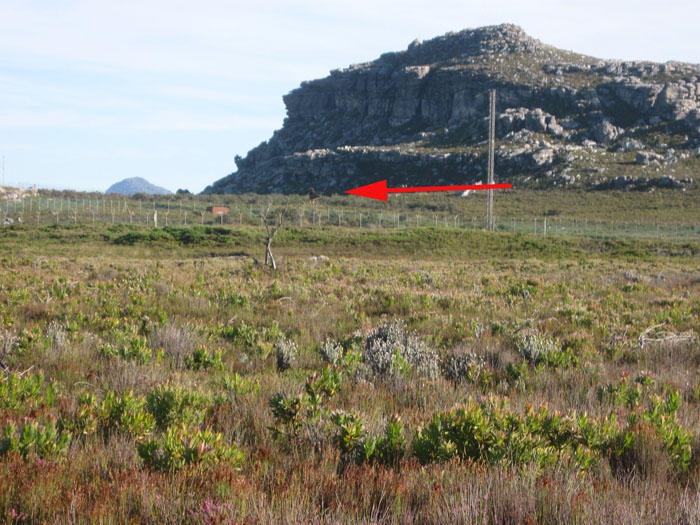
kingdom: Animalia
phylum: Chordata
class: Aves
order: Accipitriformes
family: Accipitridae
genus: Buteo
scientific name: Buteo rufofuscus
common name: Jackal buzzard
